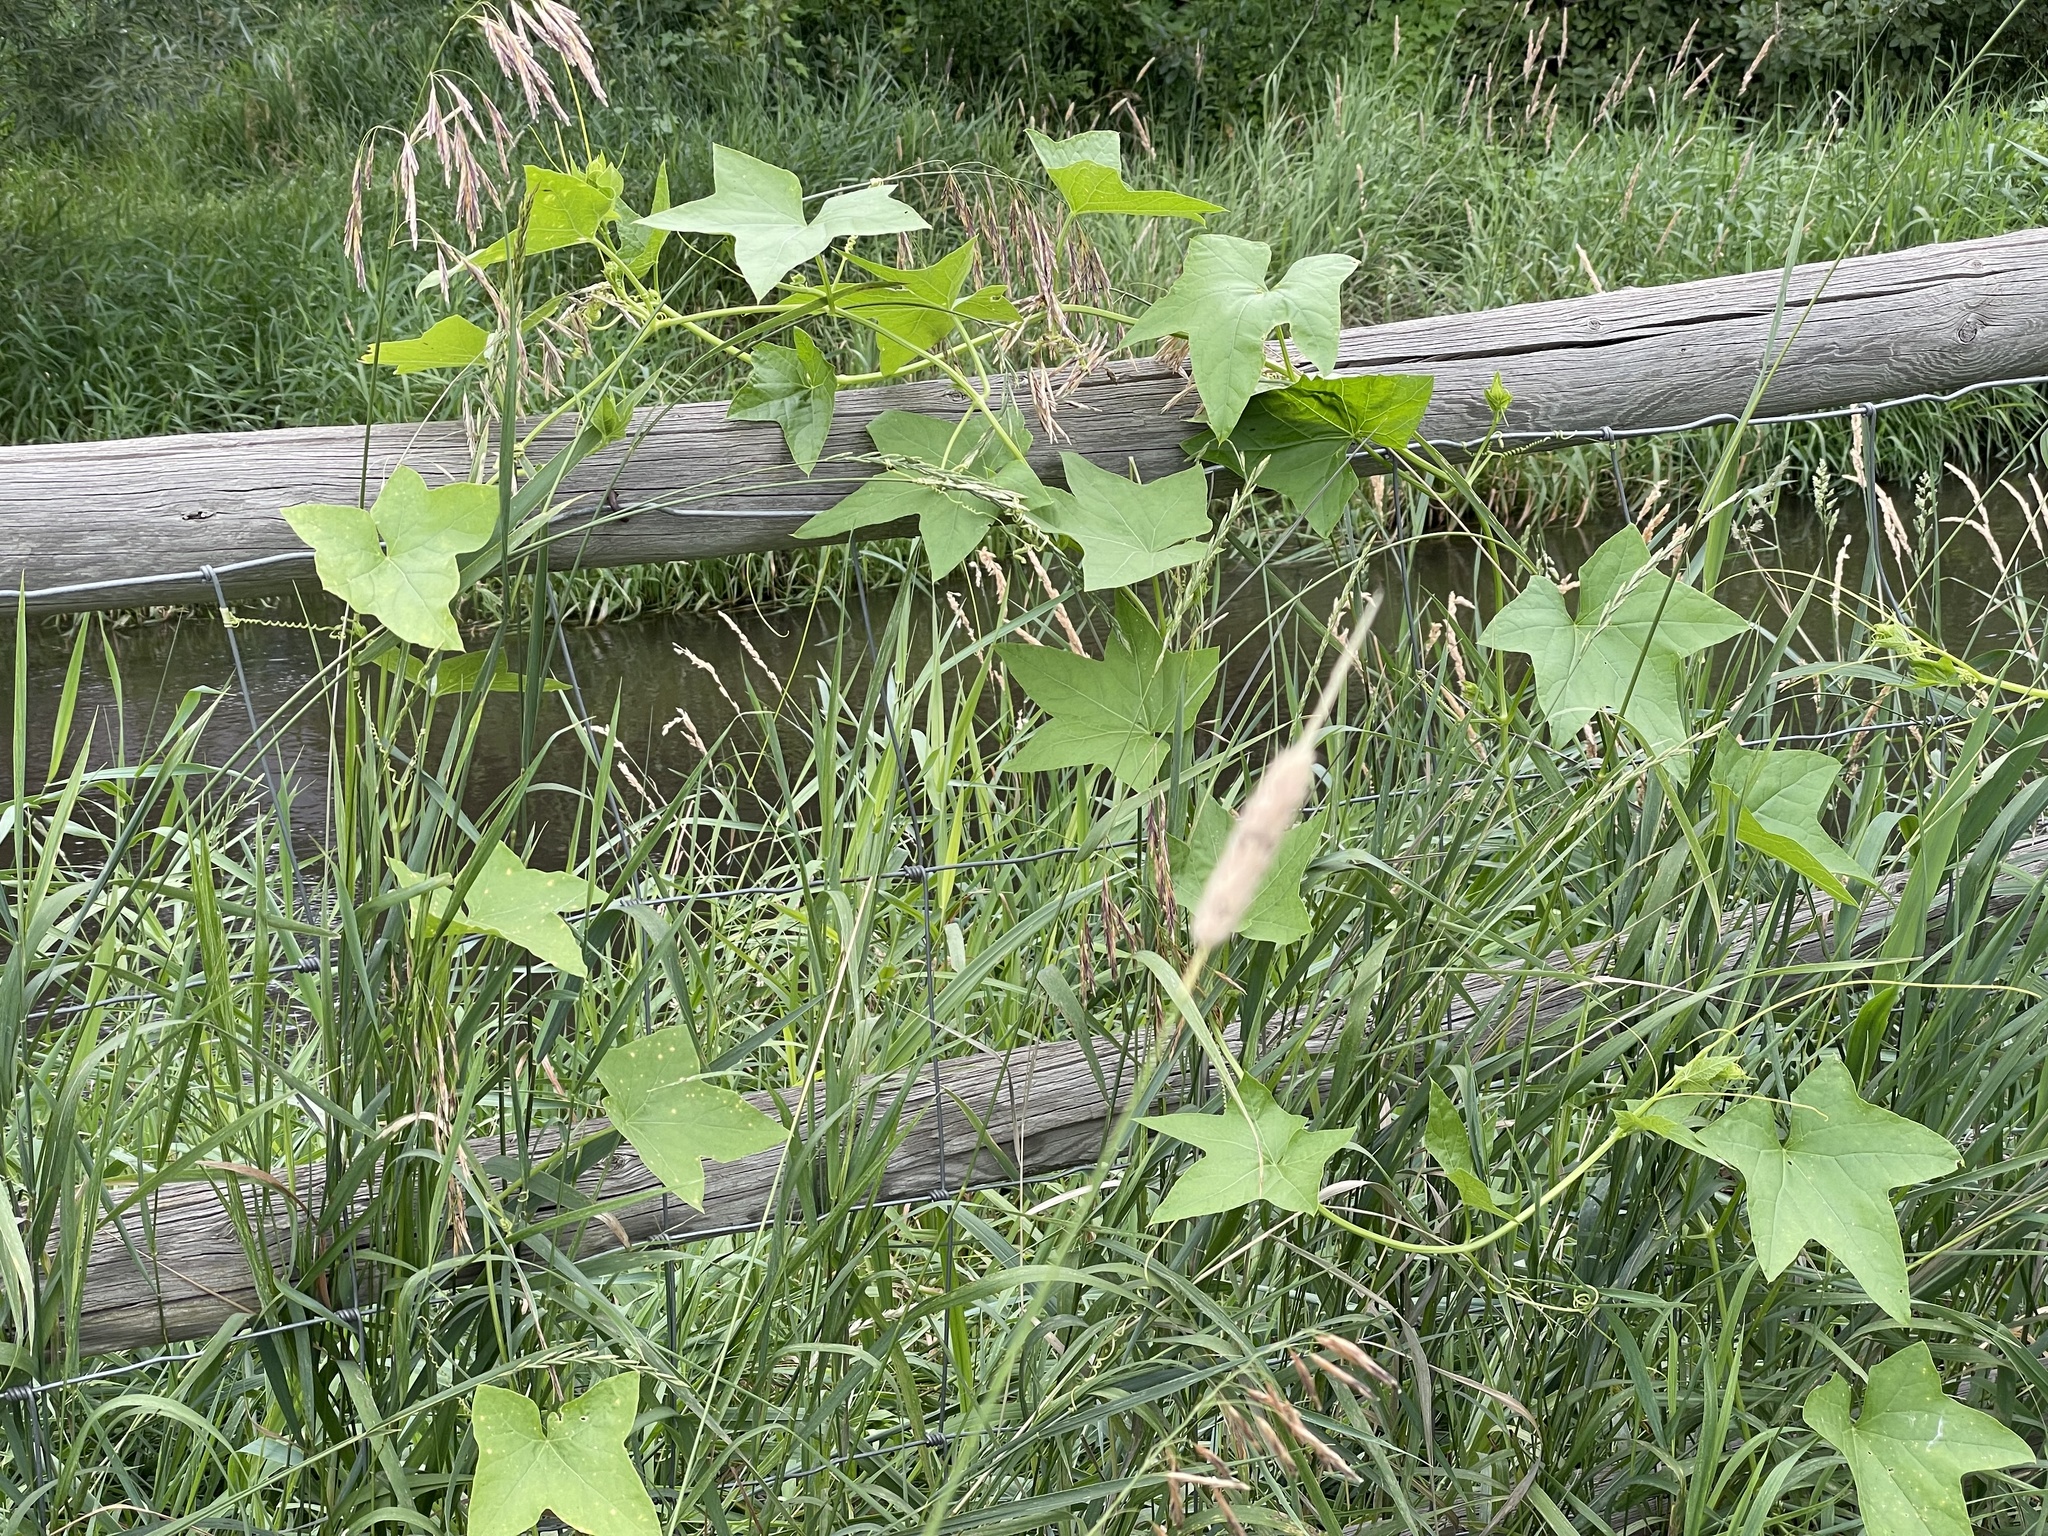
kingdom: Plantae
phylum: Tracheophyta
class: Magnoliopsida
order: Cucurbitales
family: Cucurbitaceae
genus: Echinocystis
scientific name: Echinocystis lobata
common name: Wild cucumber
